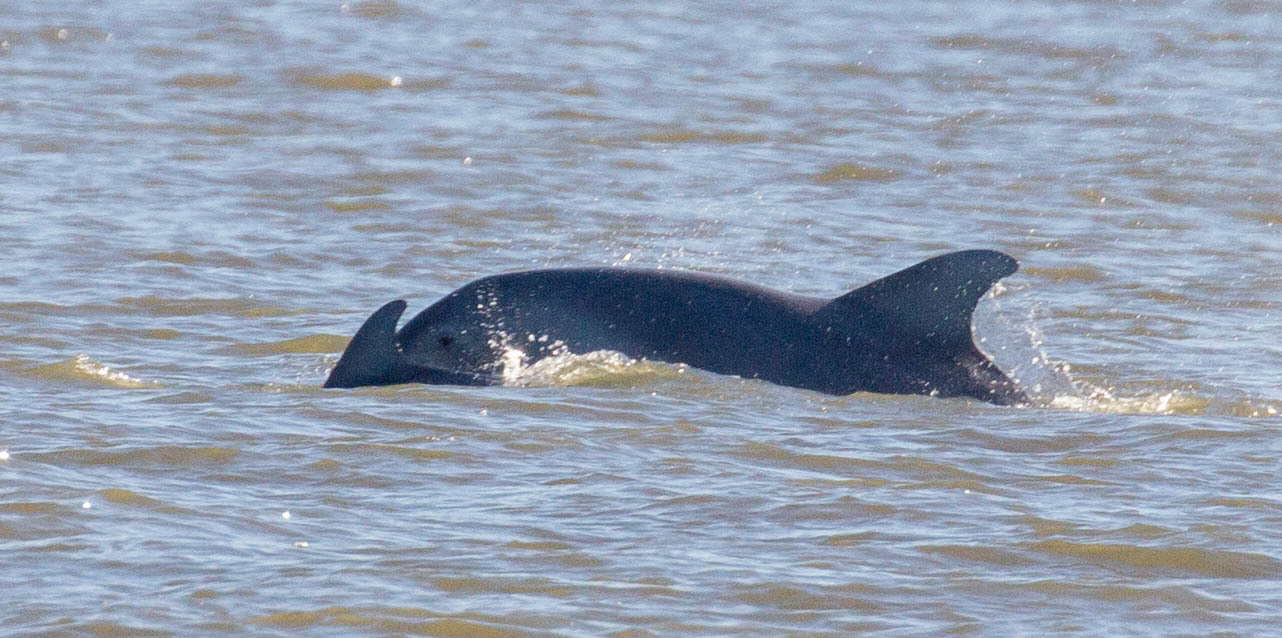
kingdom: Animalia
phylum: Chordata
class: Mammalia
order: Cetacea
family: Delphinidae
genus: Tursiops
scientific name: Tursiops truncatus
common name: Bottlenose dolphin
